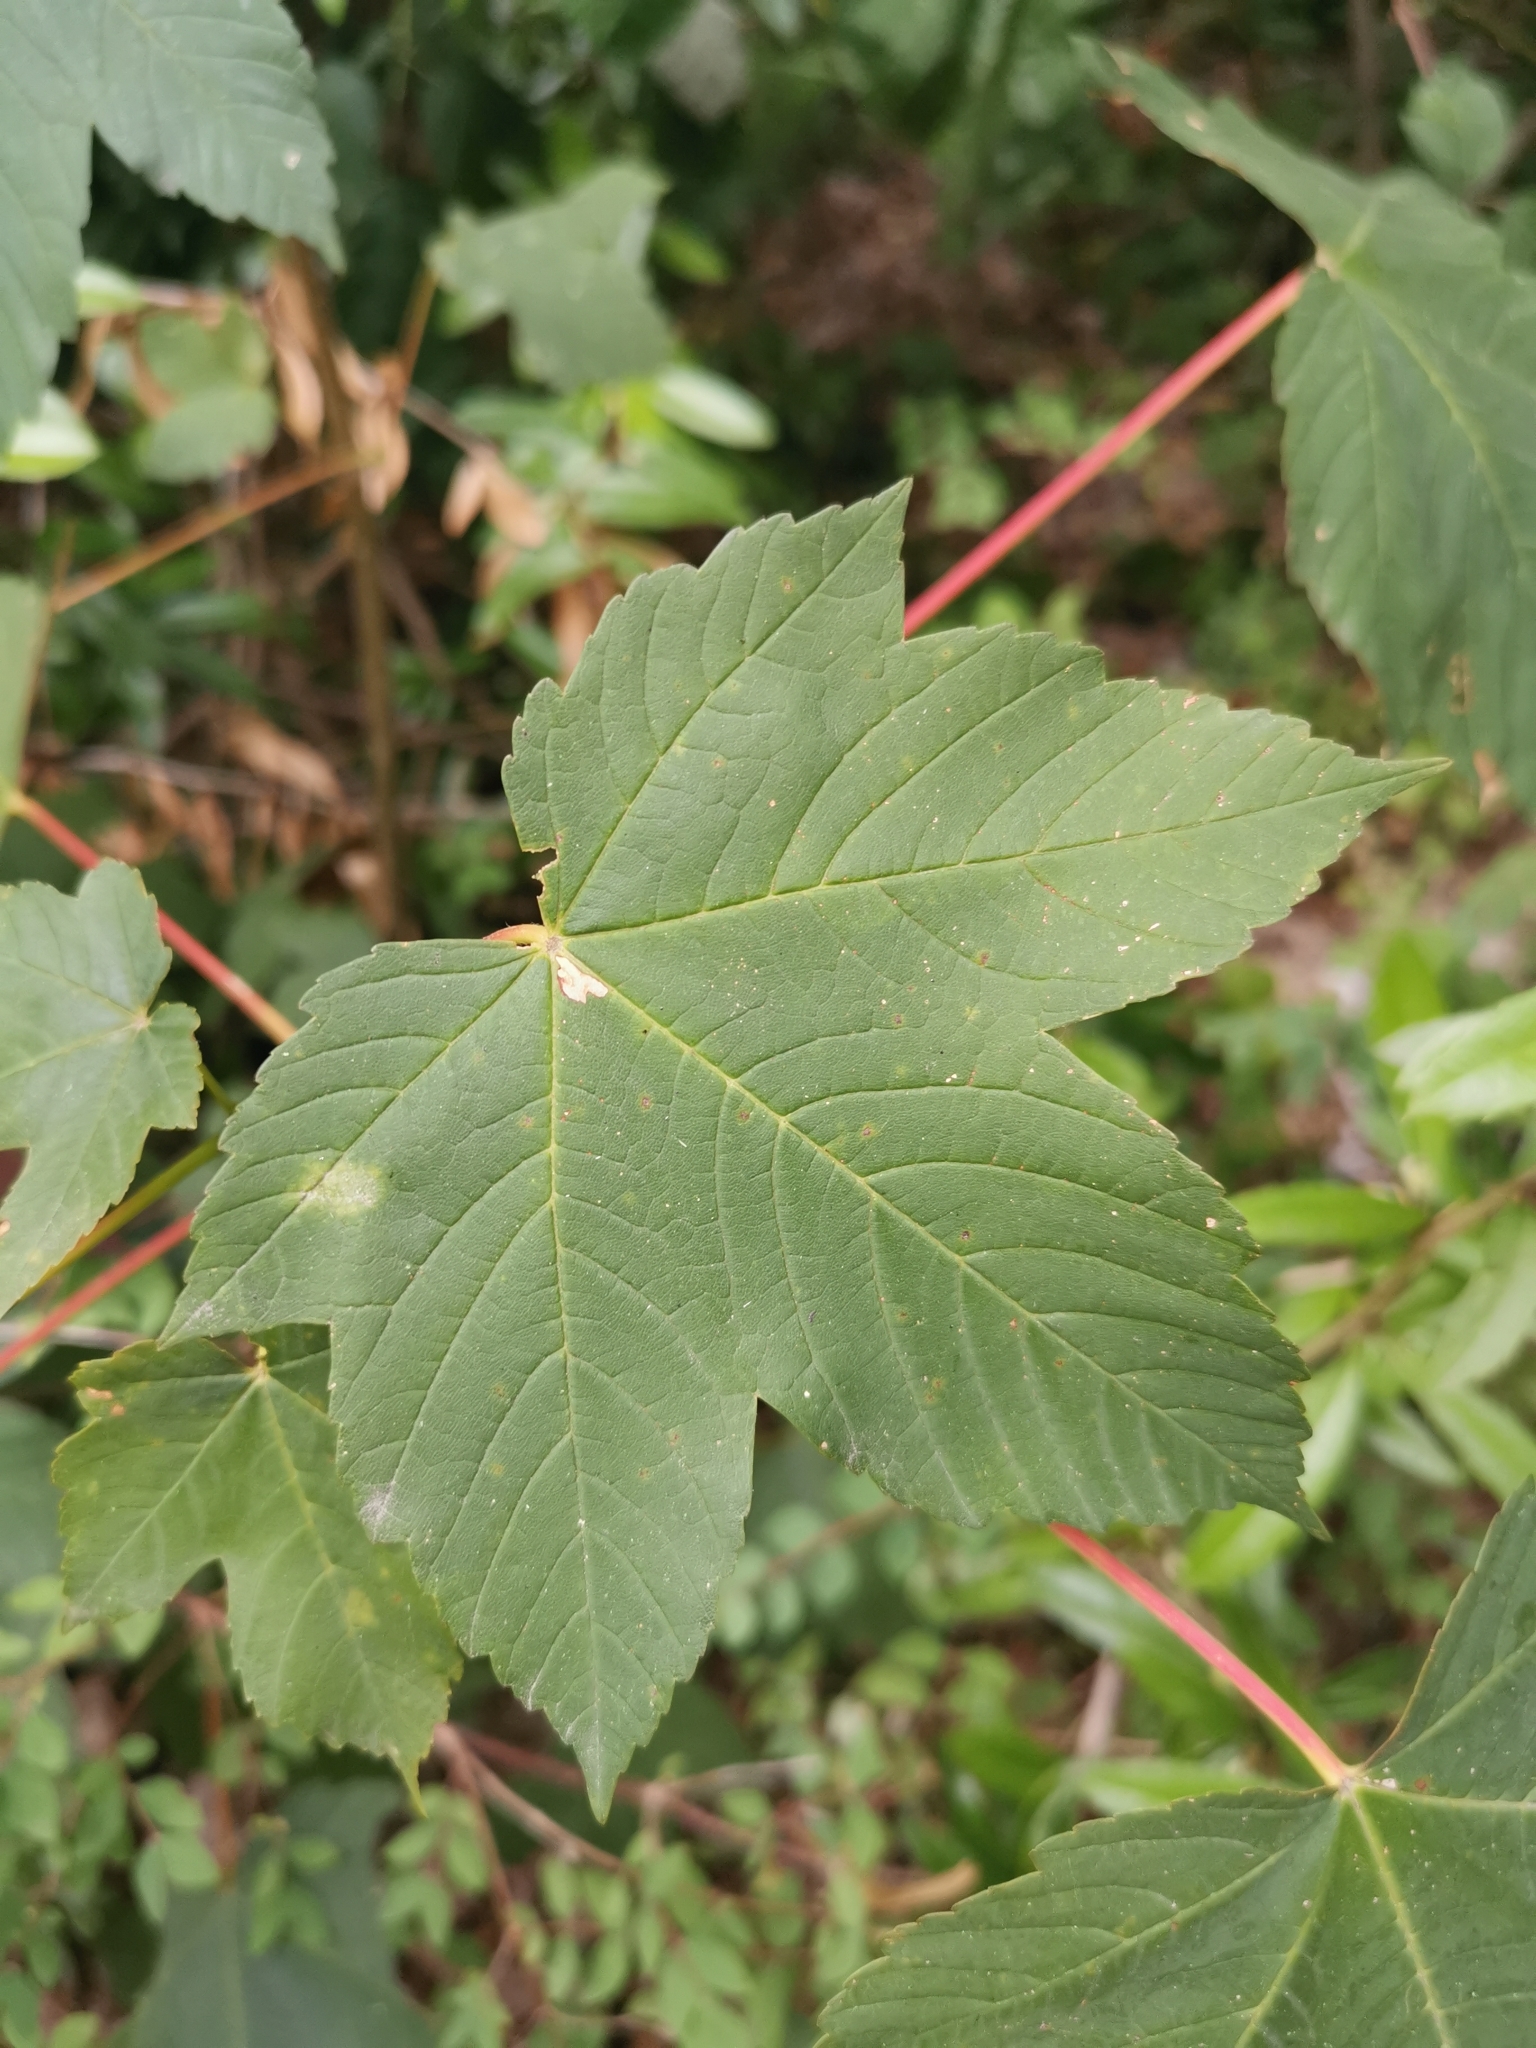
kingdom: Plantae
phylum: Tracheophyta
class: Magnoliopsida
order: Sapindales
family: Sapindaceae
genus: Acer
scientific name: Acer pseudoplatanus
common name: Sycamore
